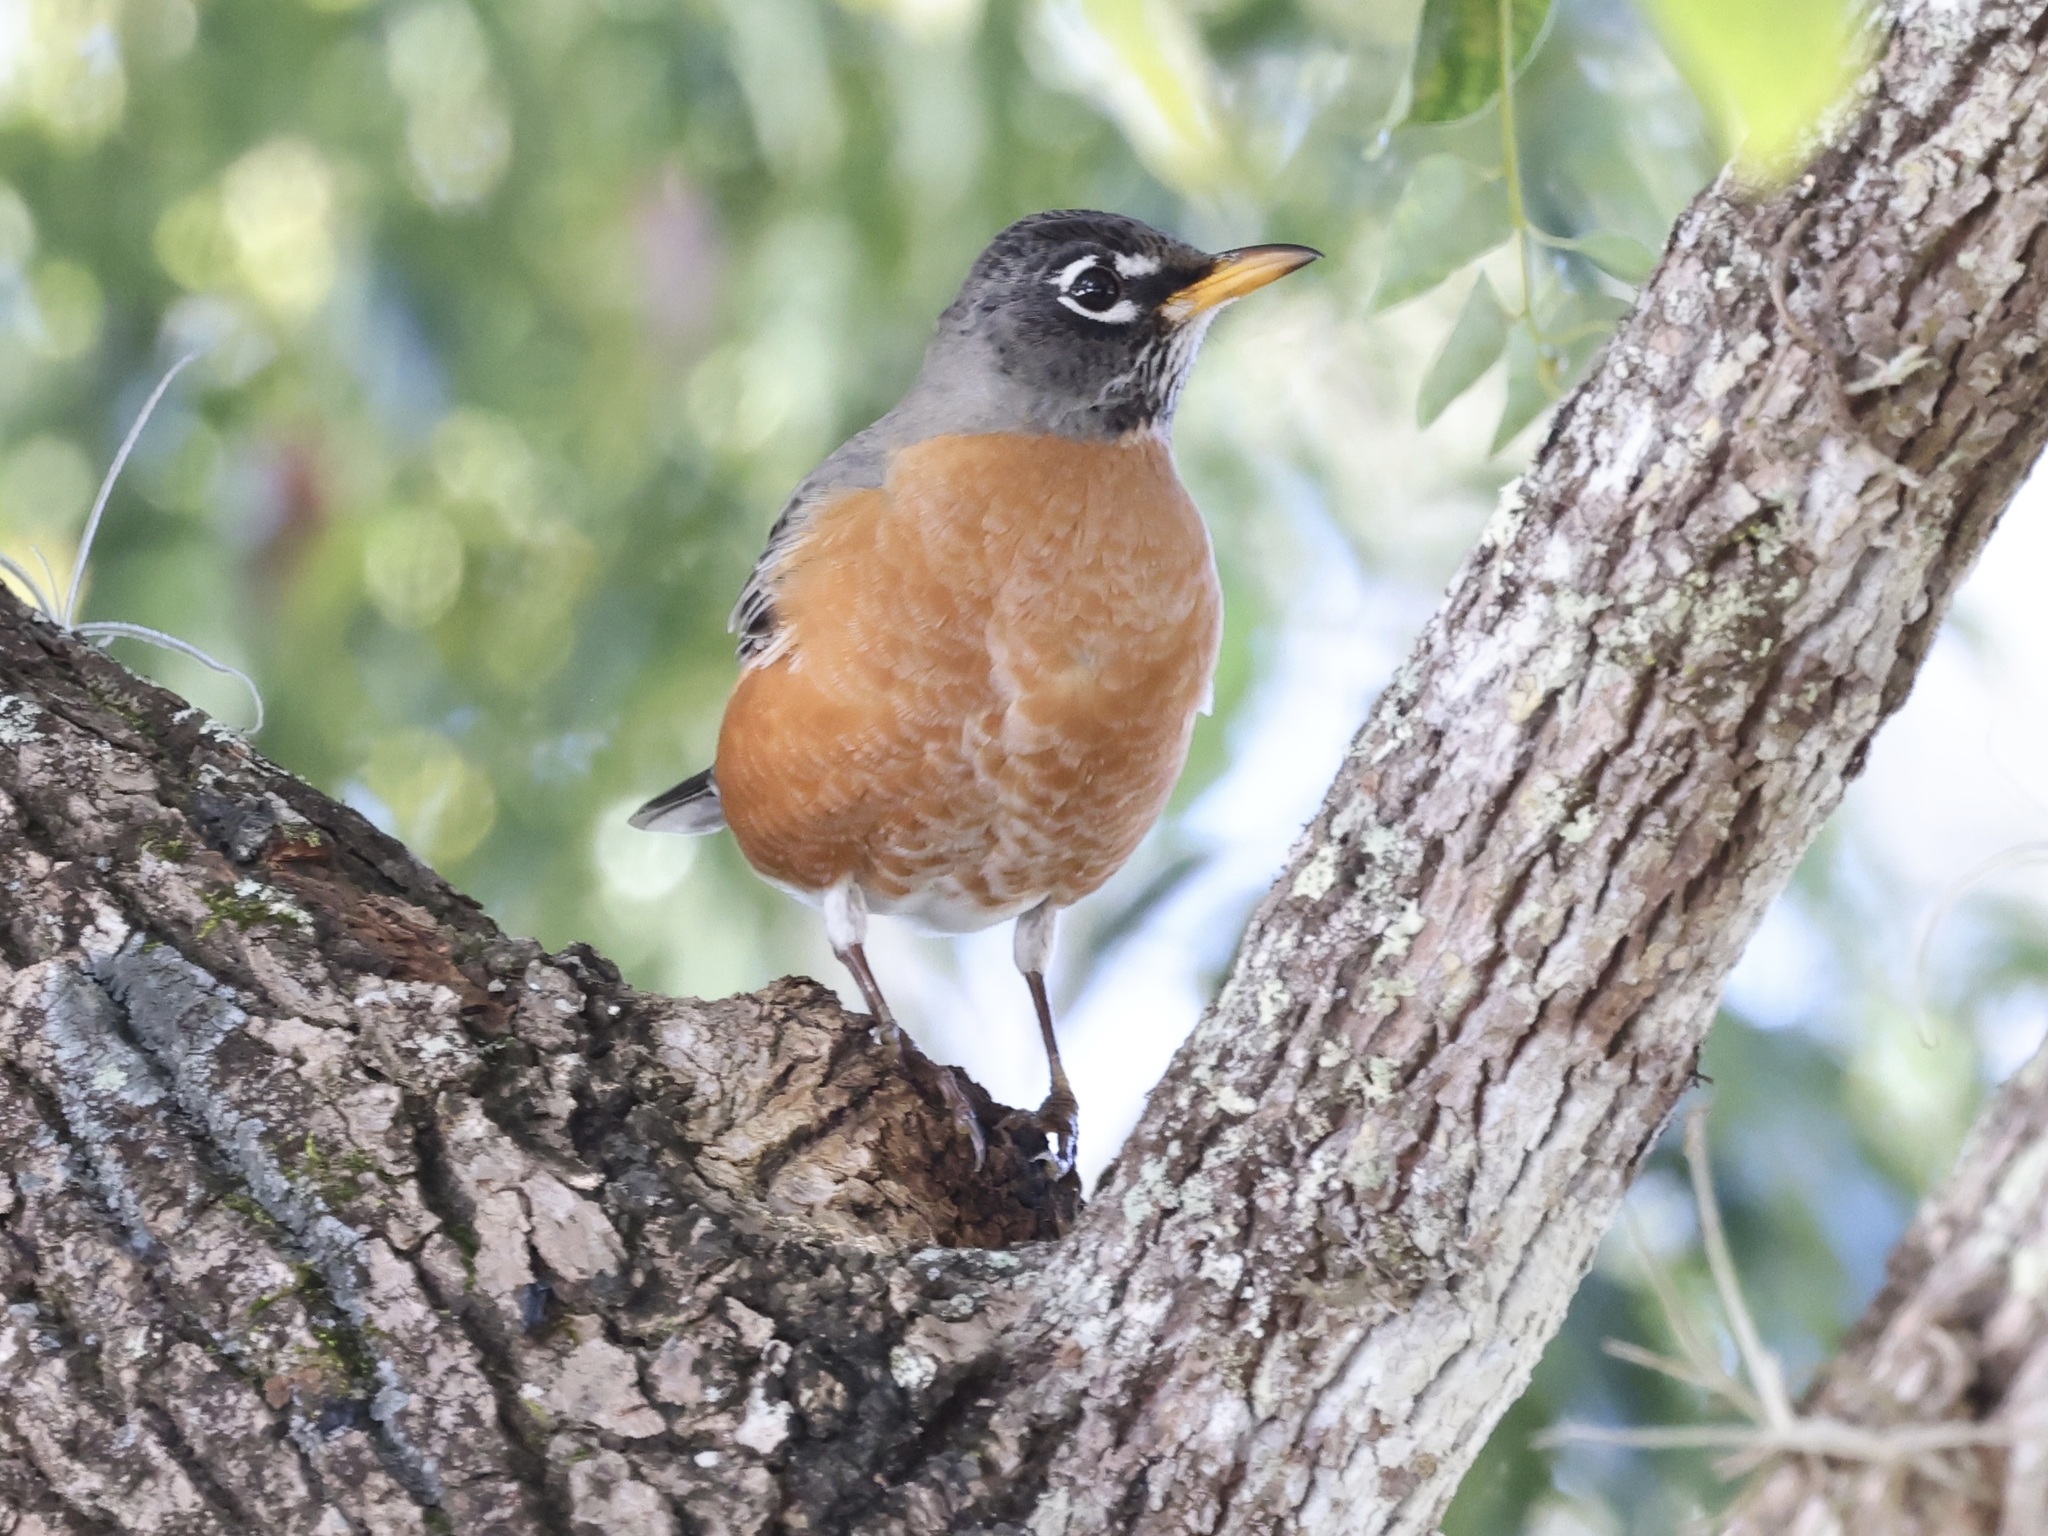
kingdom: Animalia
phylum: Chordata
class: Aves
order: Passeriformes
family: Turdidae
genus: Turdus
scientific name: Turdus migratorius
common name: American robin
